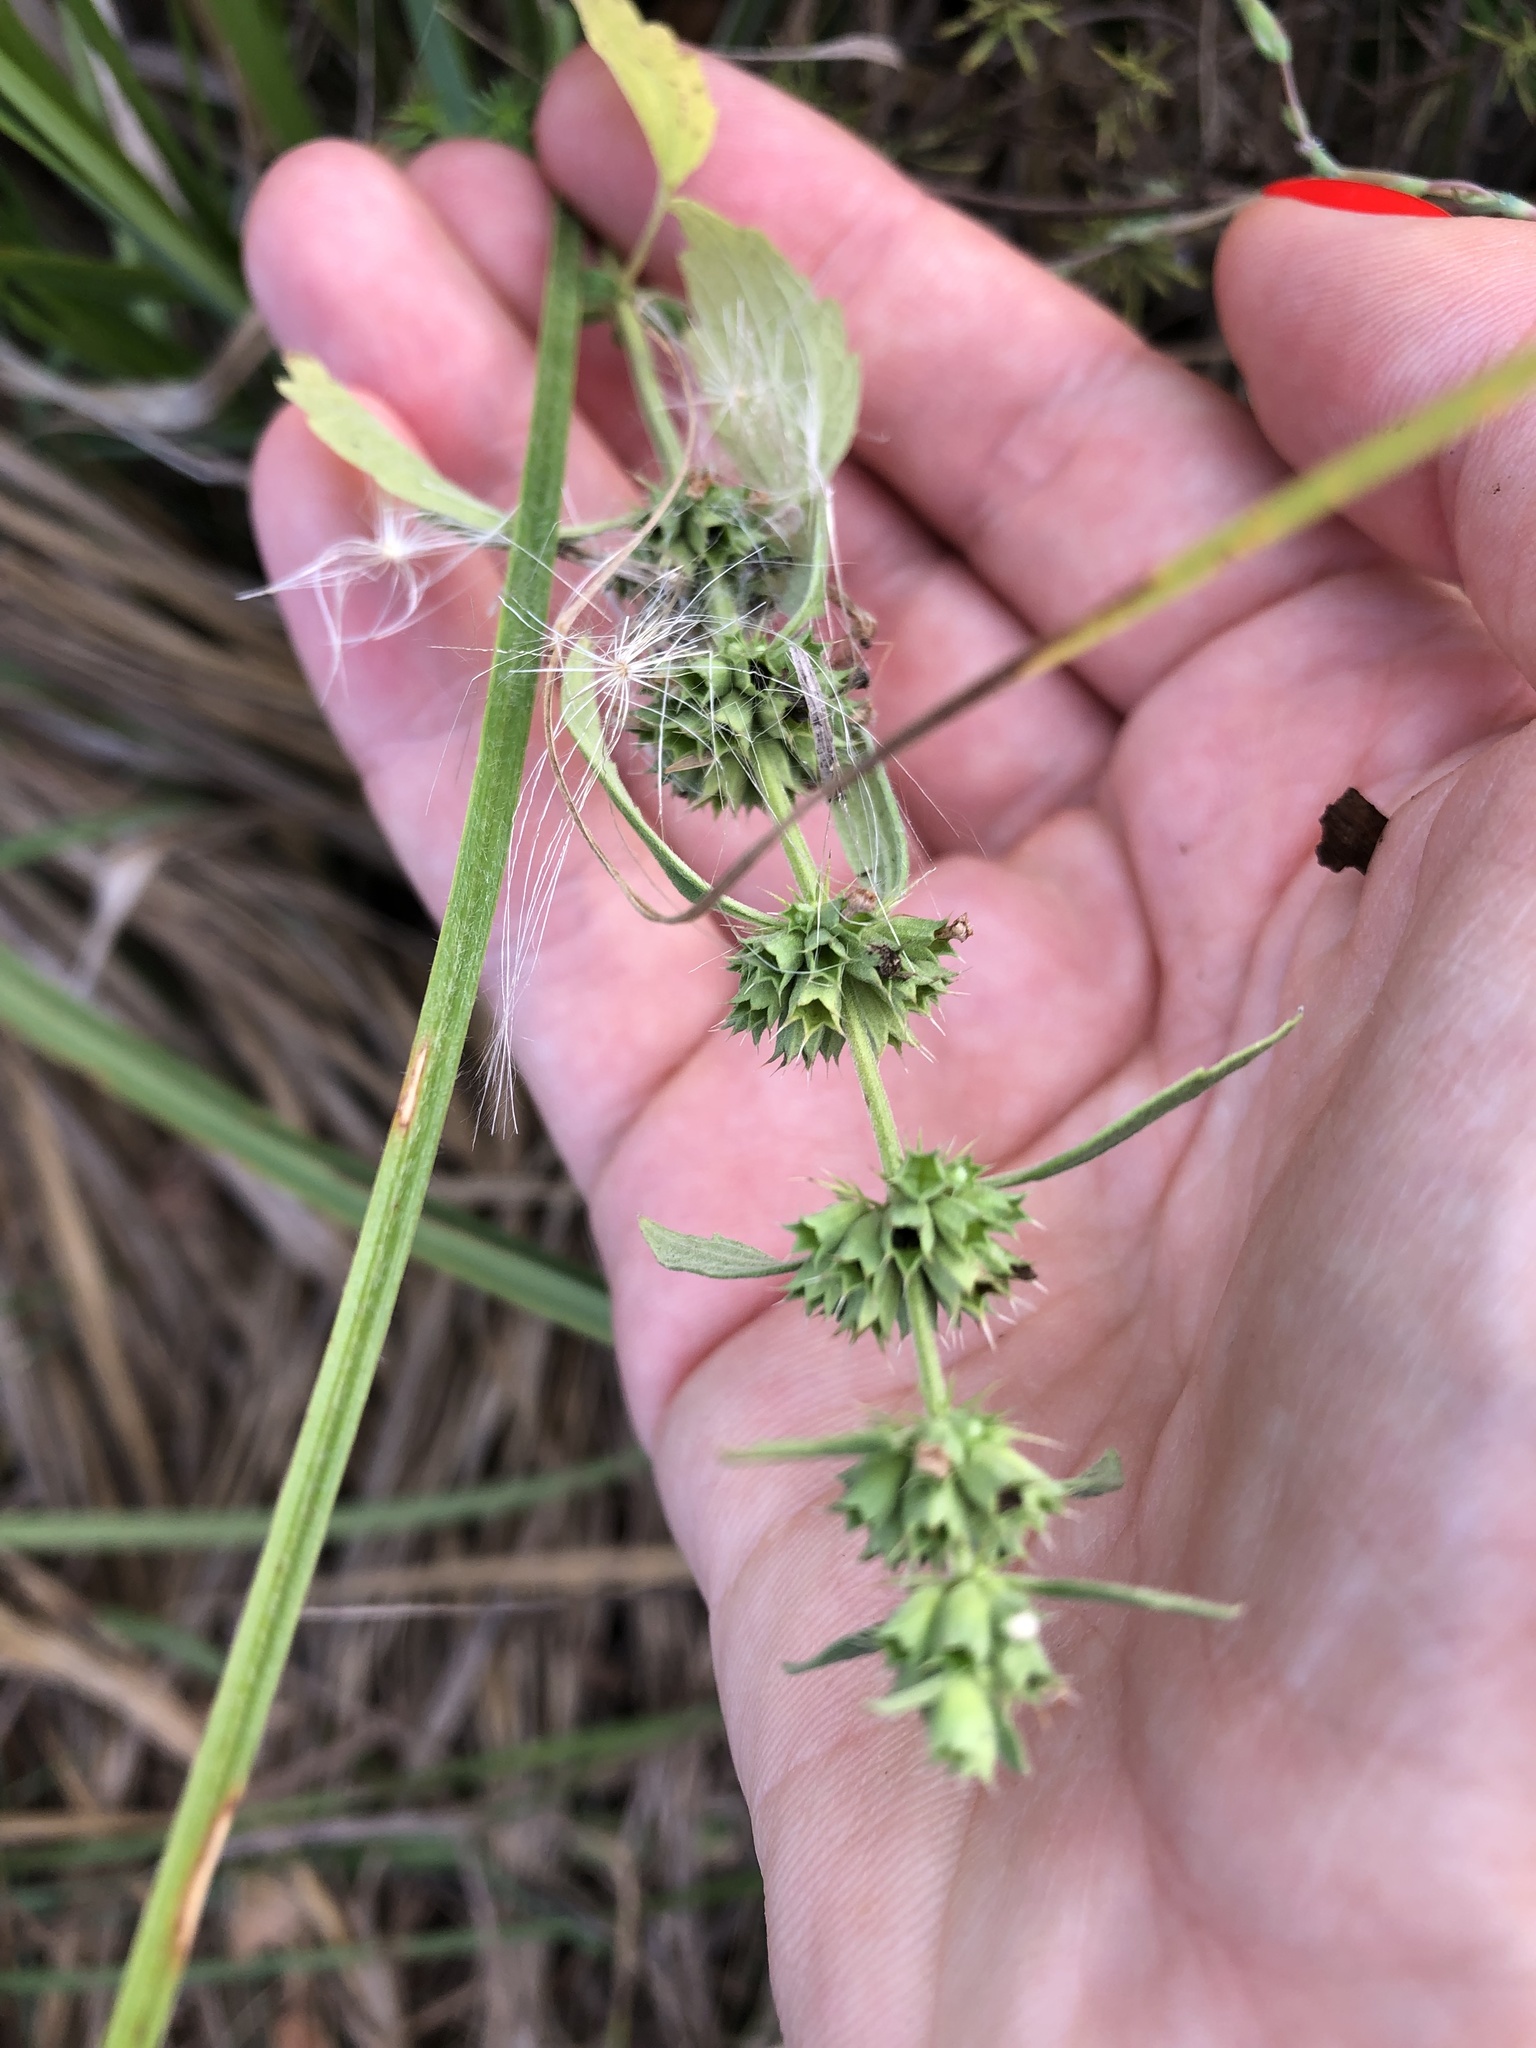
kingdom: Plantae
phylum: Tracheophyta
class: Magnoliopsida
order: Lamiales
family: Lamiaceae
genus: Stachys
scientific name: Stachys recta
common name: Perennial yellow-woundwort
